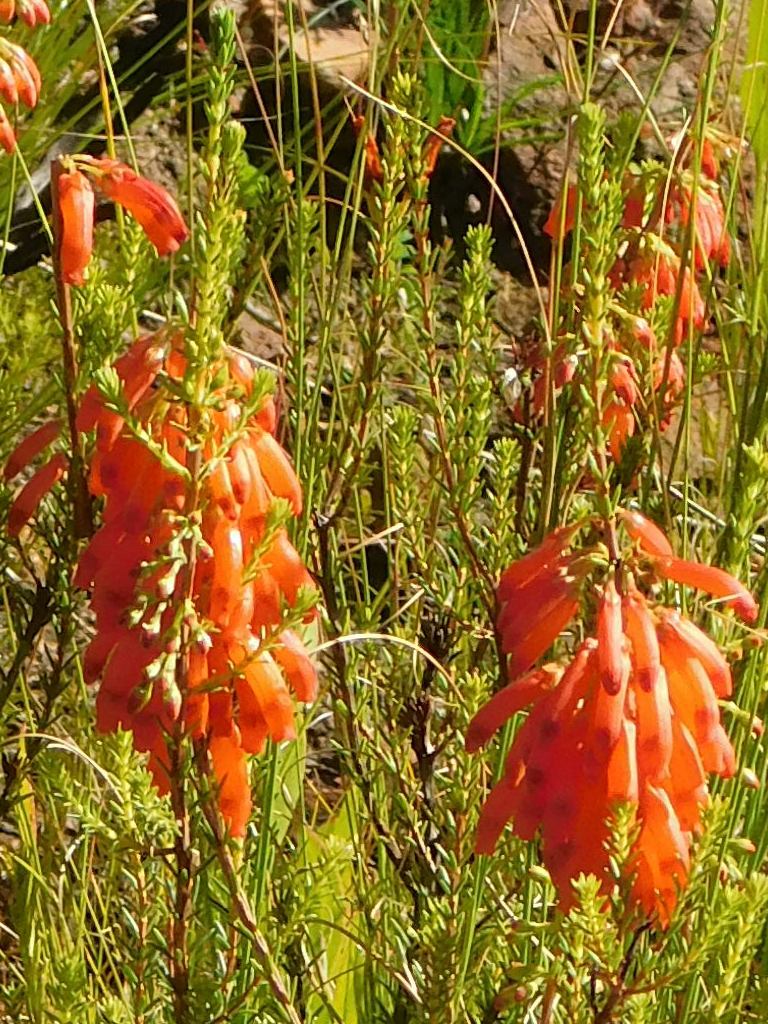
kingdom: Plantae
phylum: Tracheophyta
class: Magnoliopsida
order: Ericales
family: Ericaceae
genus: Erica
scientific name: Erica mammosa
